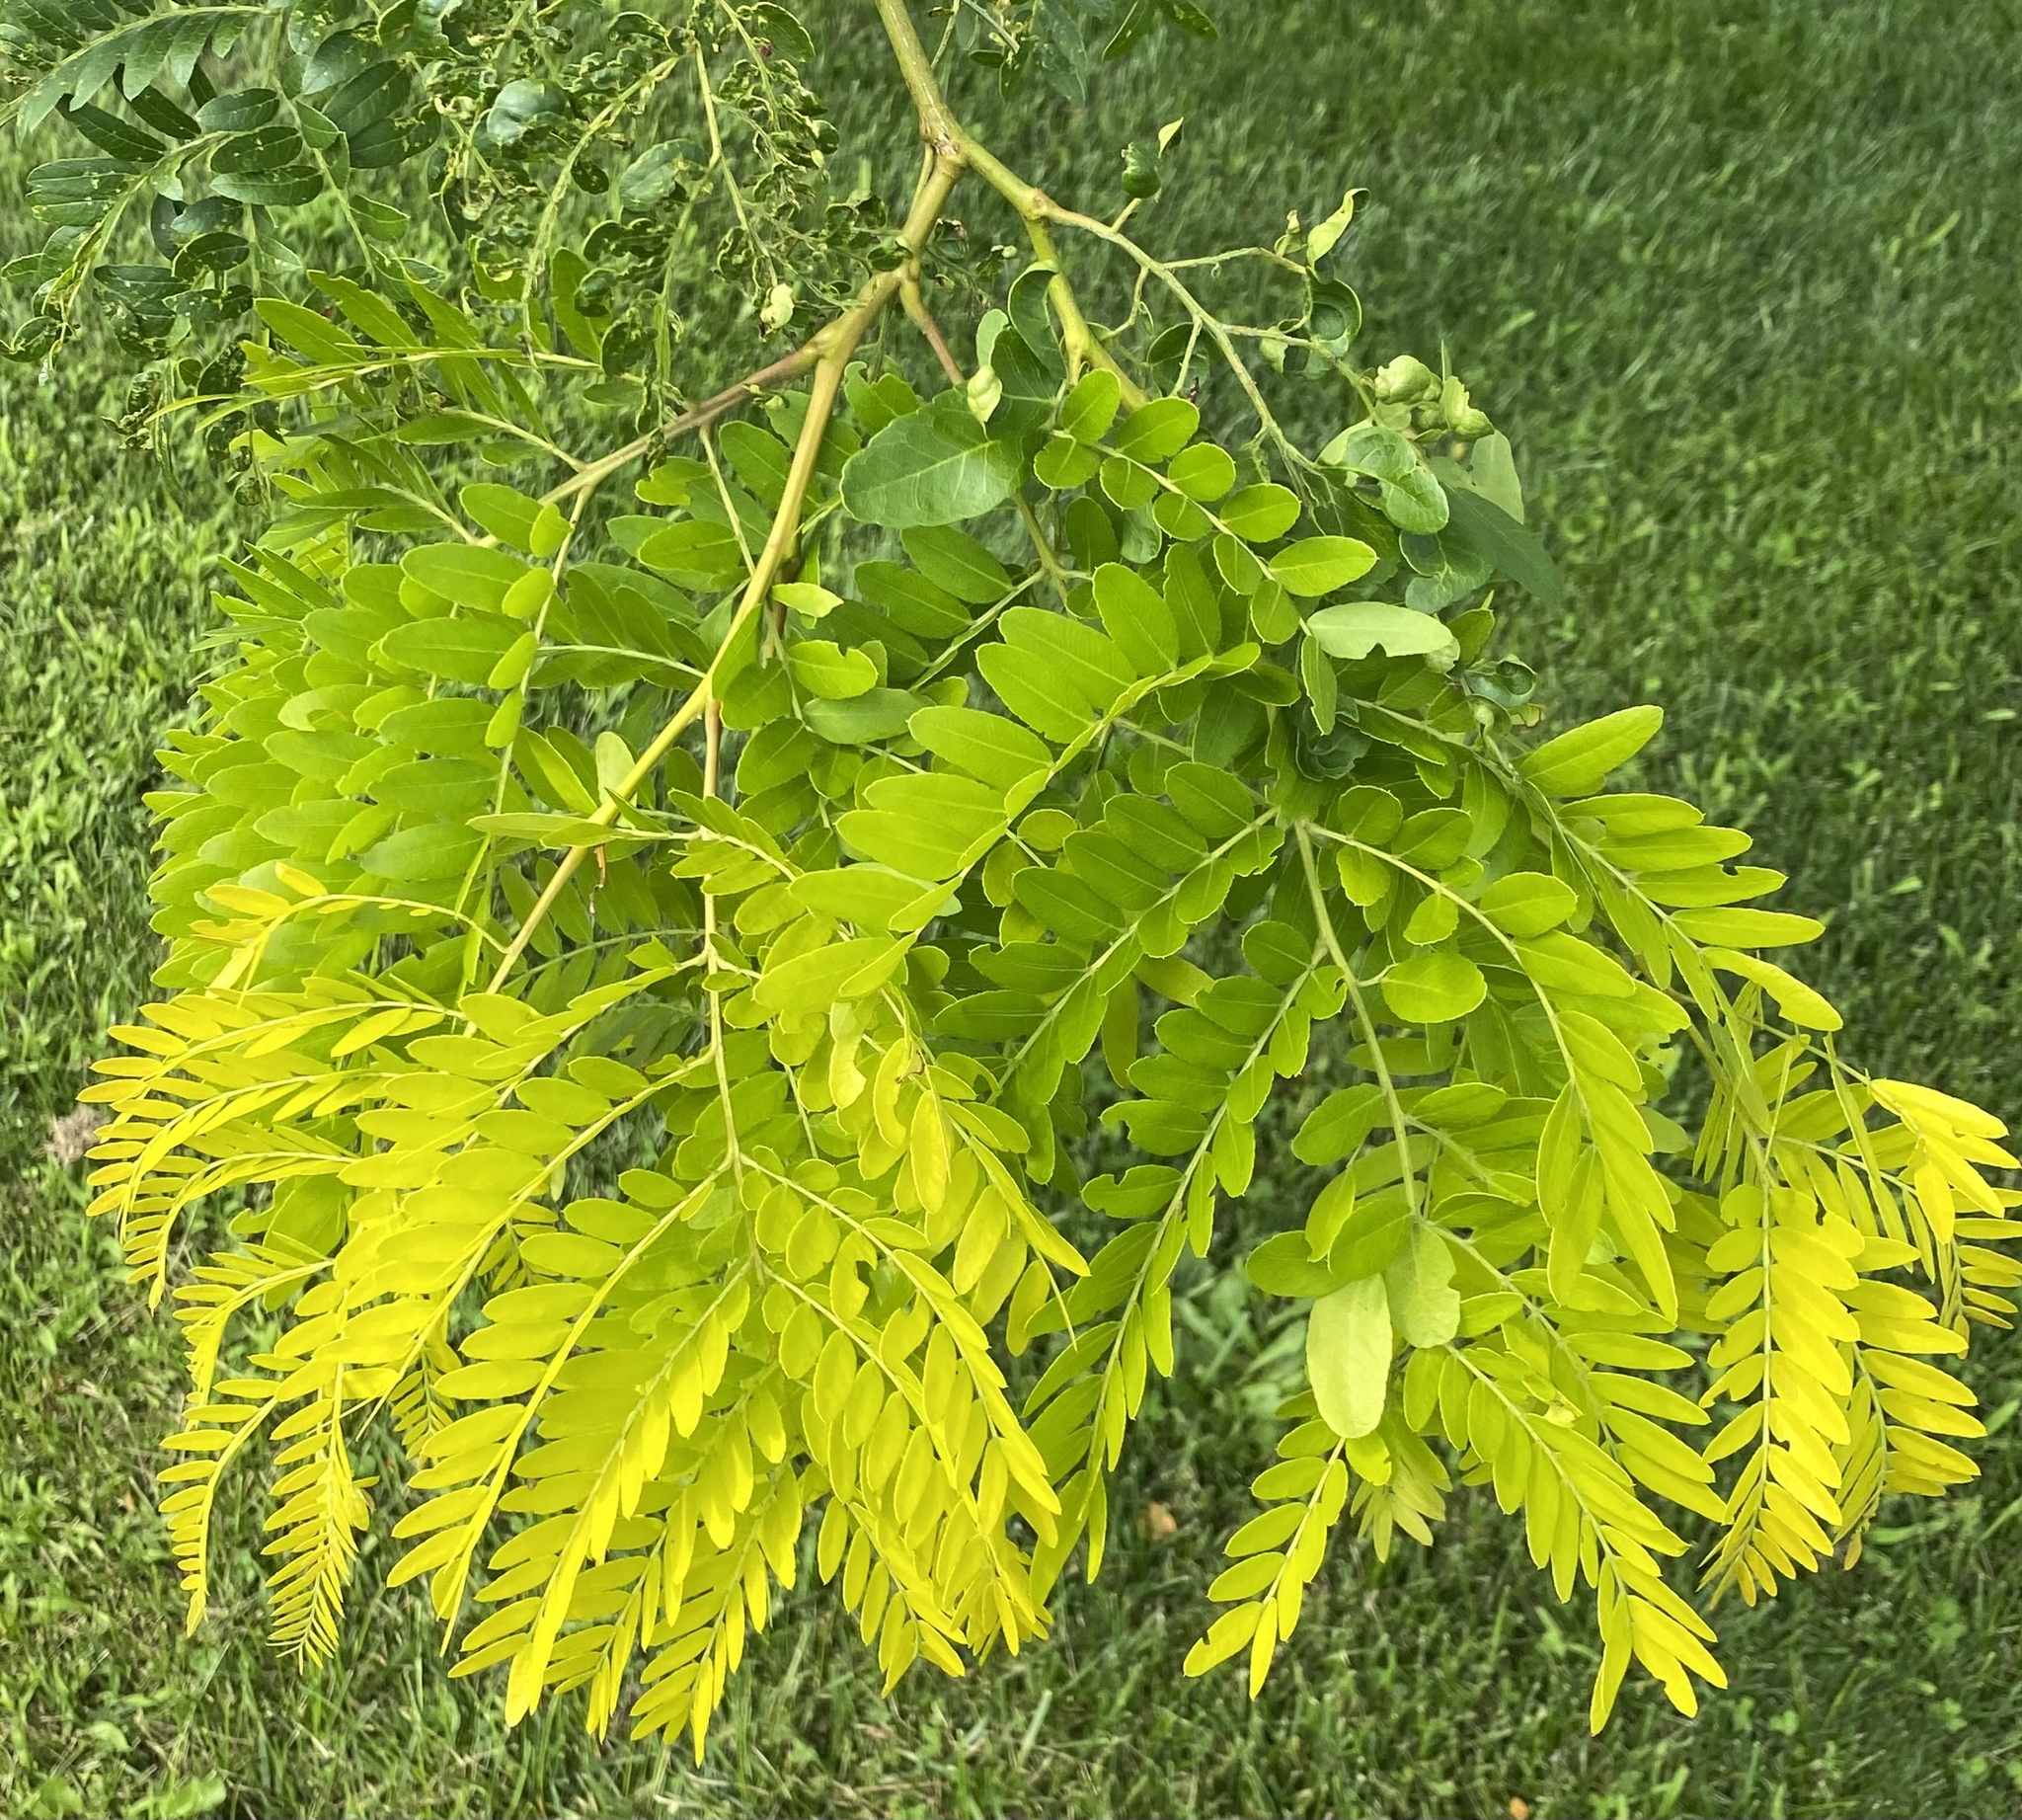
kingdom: Plantae
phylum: Tracheophyta
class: Magnoliopsida
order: Fabales
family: Fabaceae
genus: Gleditsia
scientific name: Gleditsia triacanthos
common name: Common honeylocust
